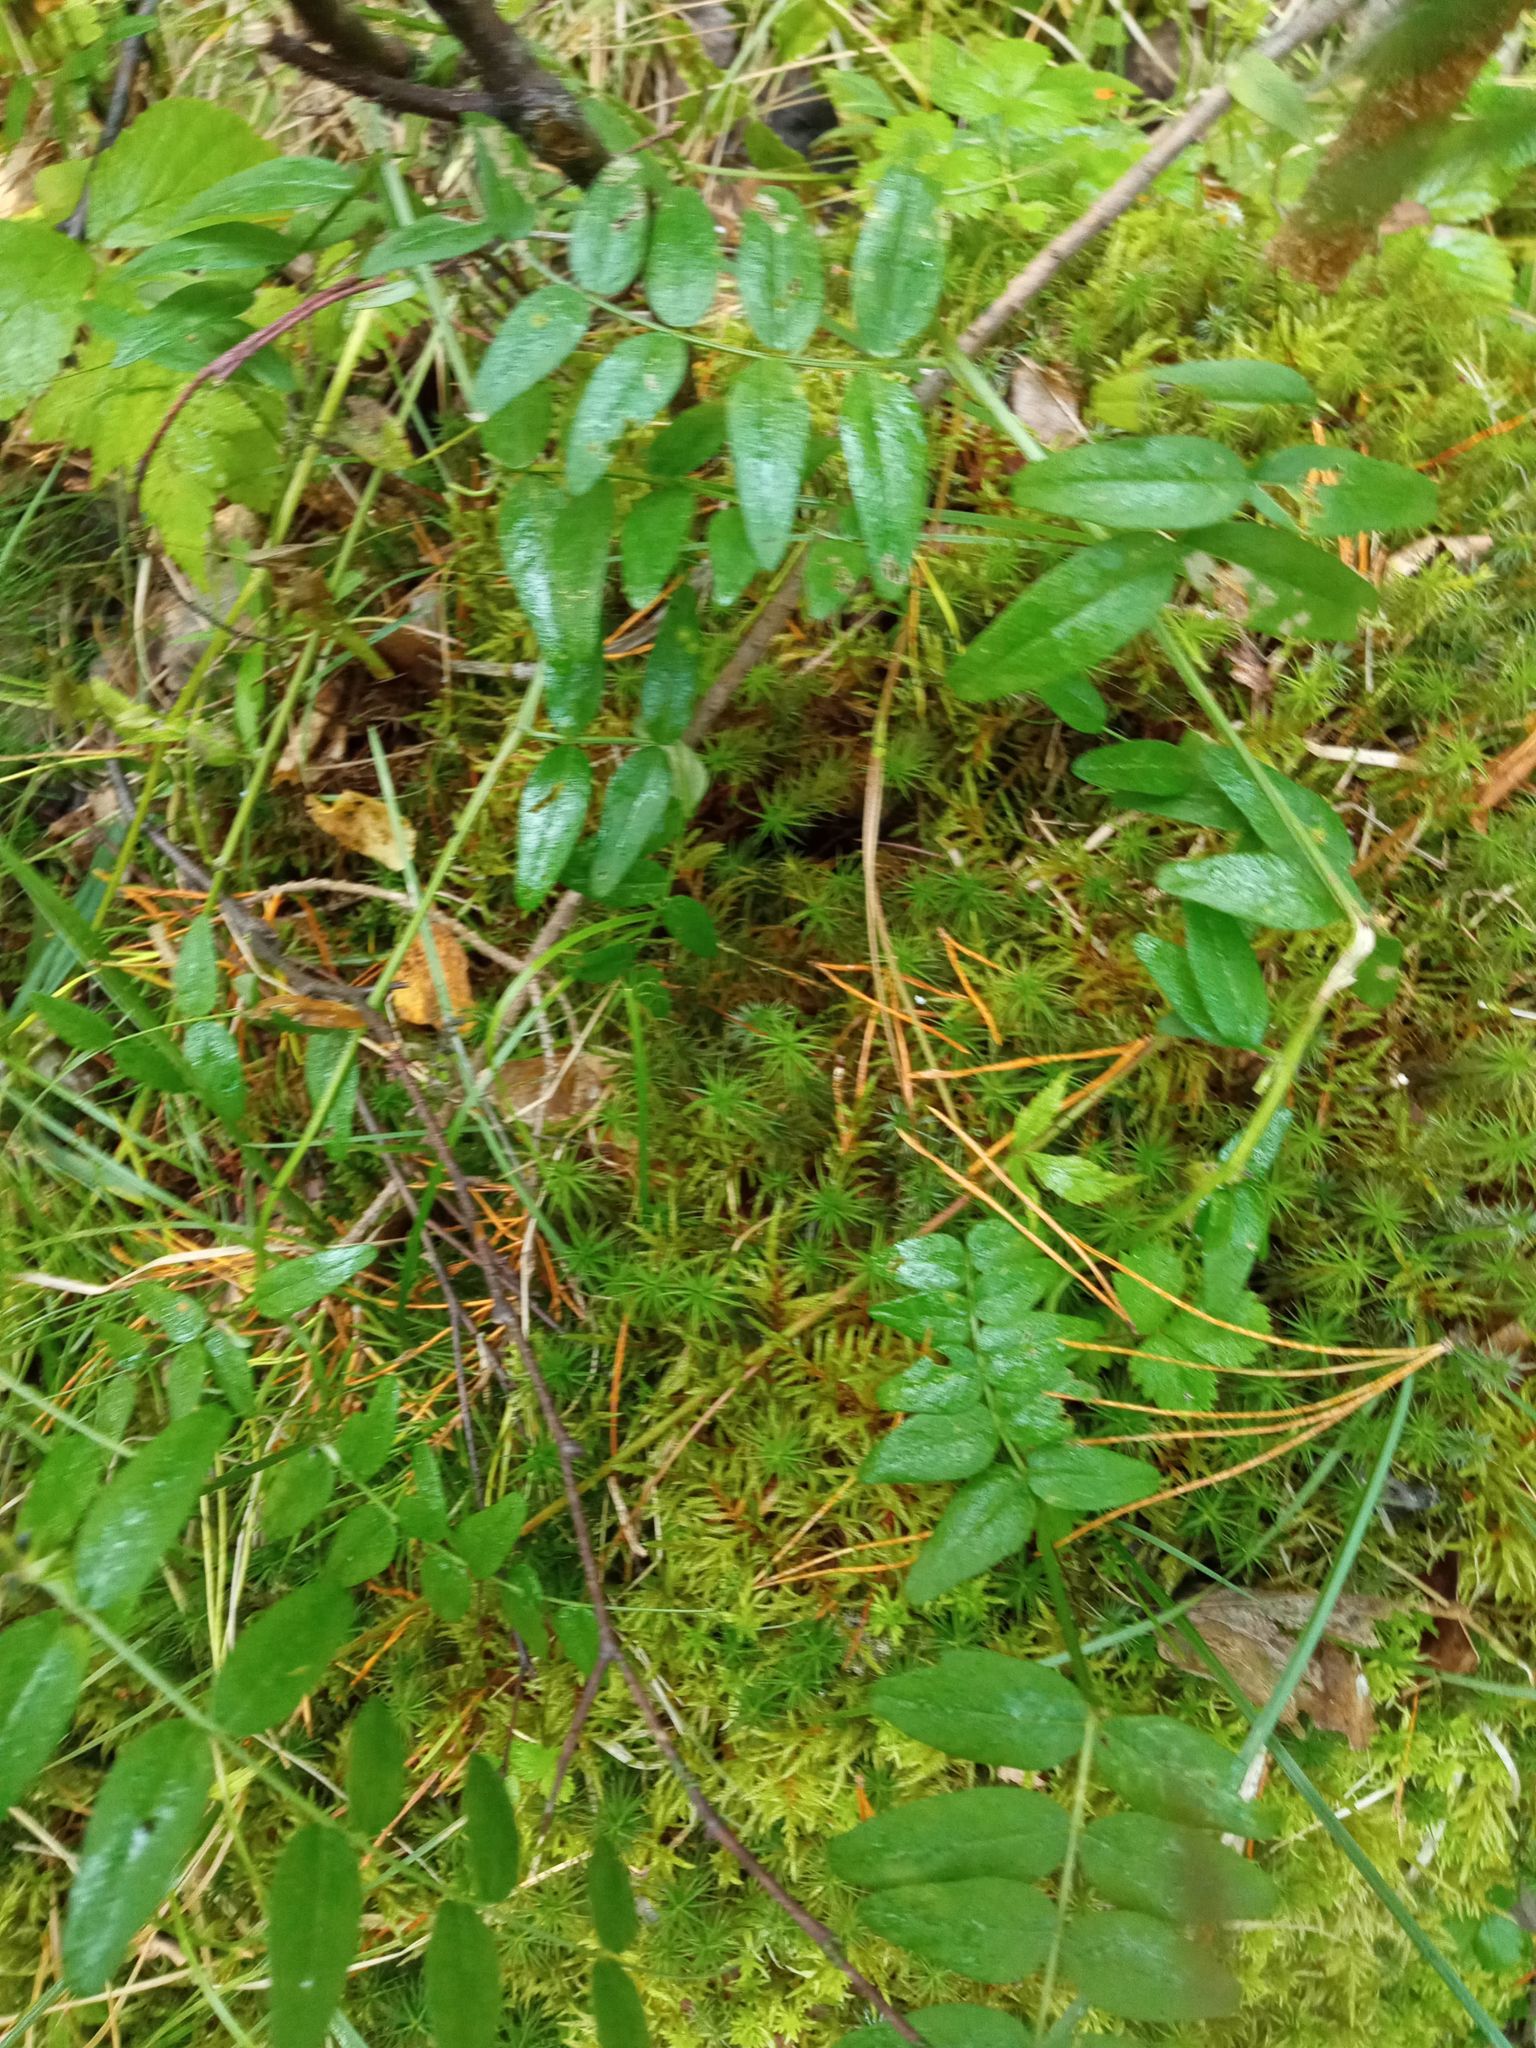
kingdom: Plantae
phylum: Tracheophyta
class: Magnoliopsida
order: Fabales
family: Fabaceae
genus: Vicia
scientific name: Vicia sepium
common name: Bush vetch
